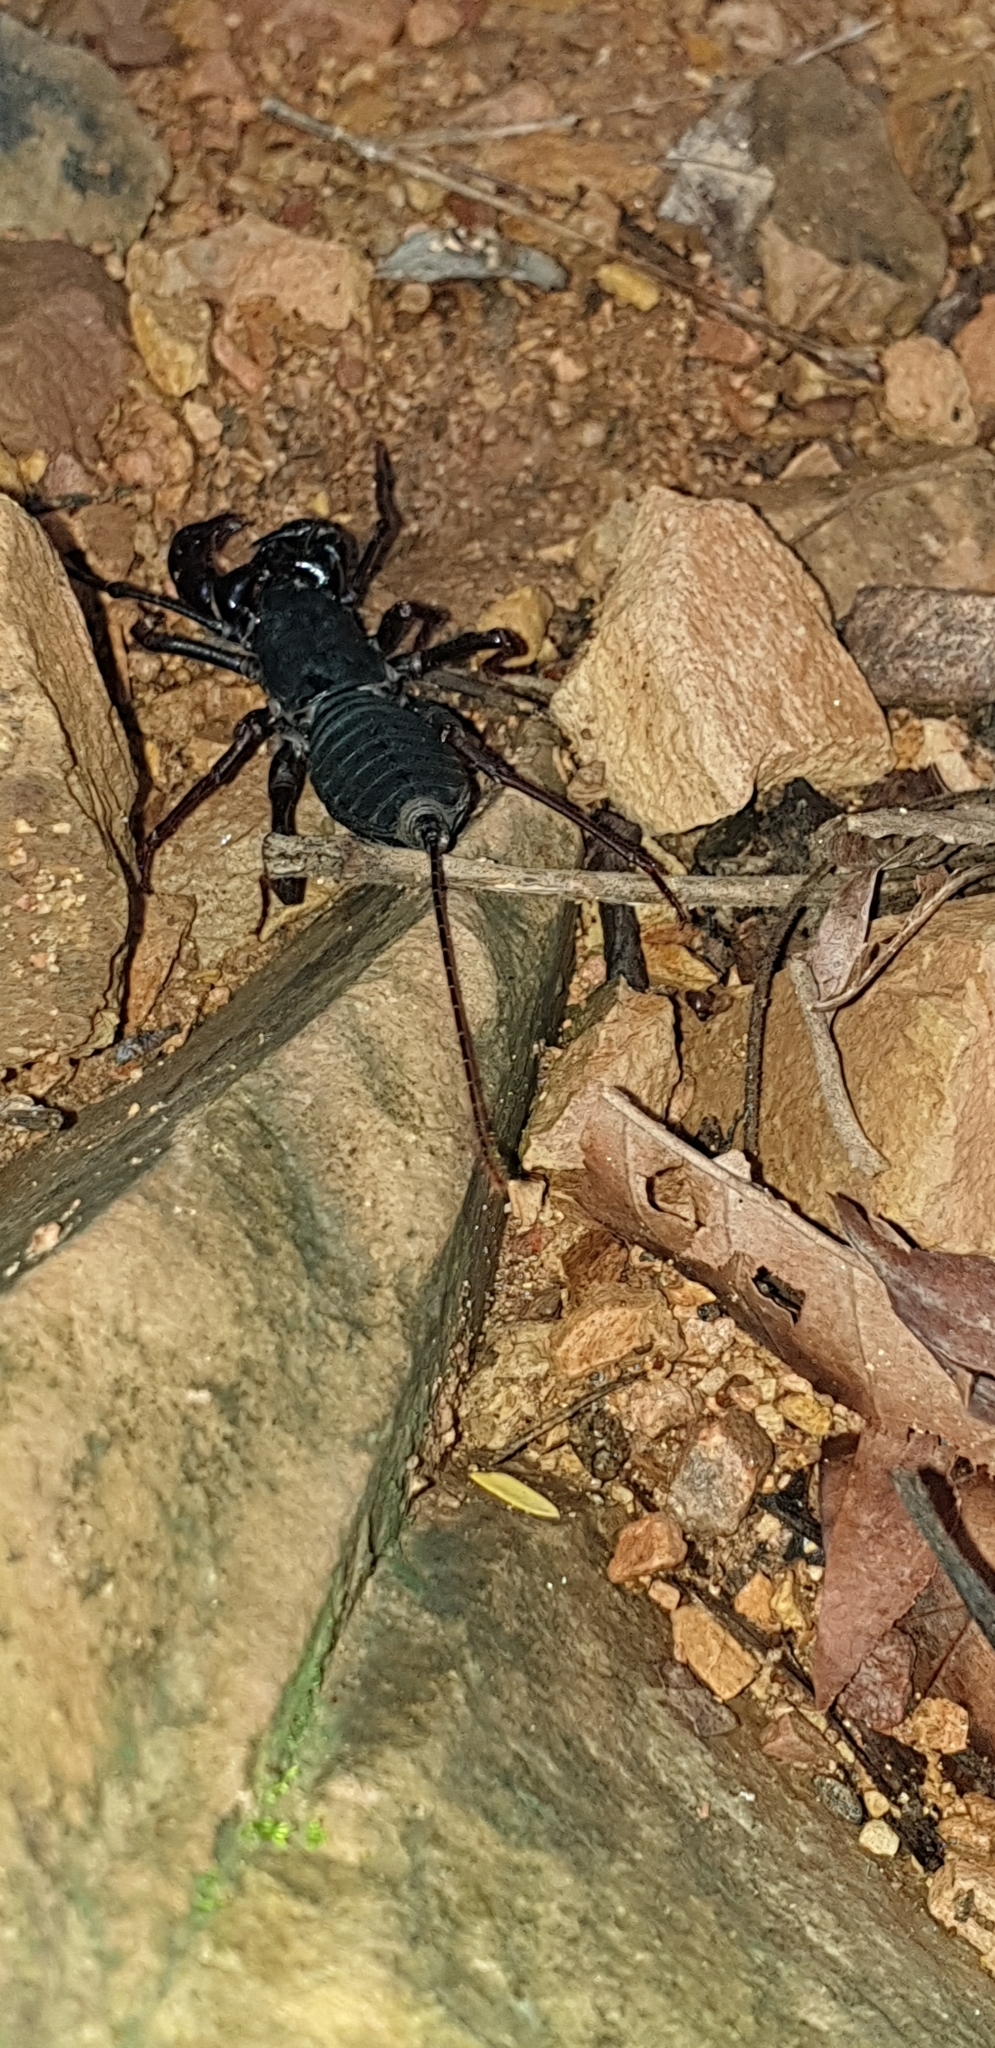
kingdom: Animalia
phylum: Arthropoda
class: Arachnida
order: Uropygi
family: Thelyphonidae
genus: Thelyphonus
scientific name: Thelyphonus sepiaris
